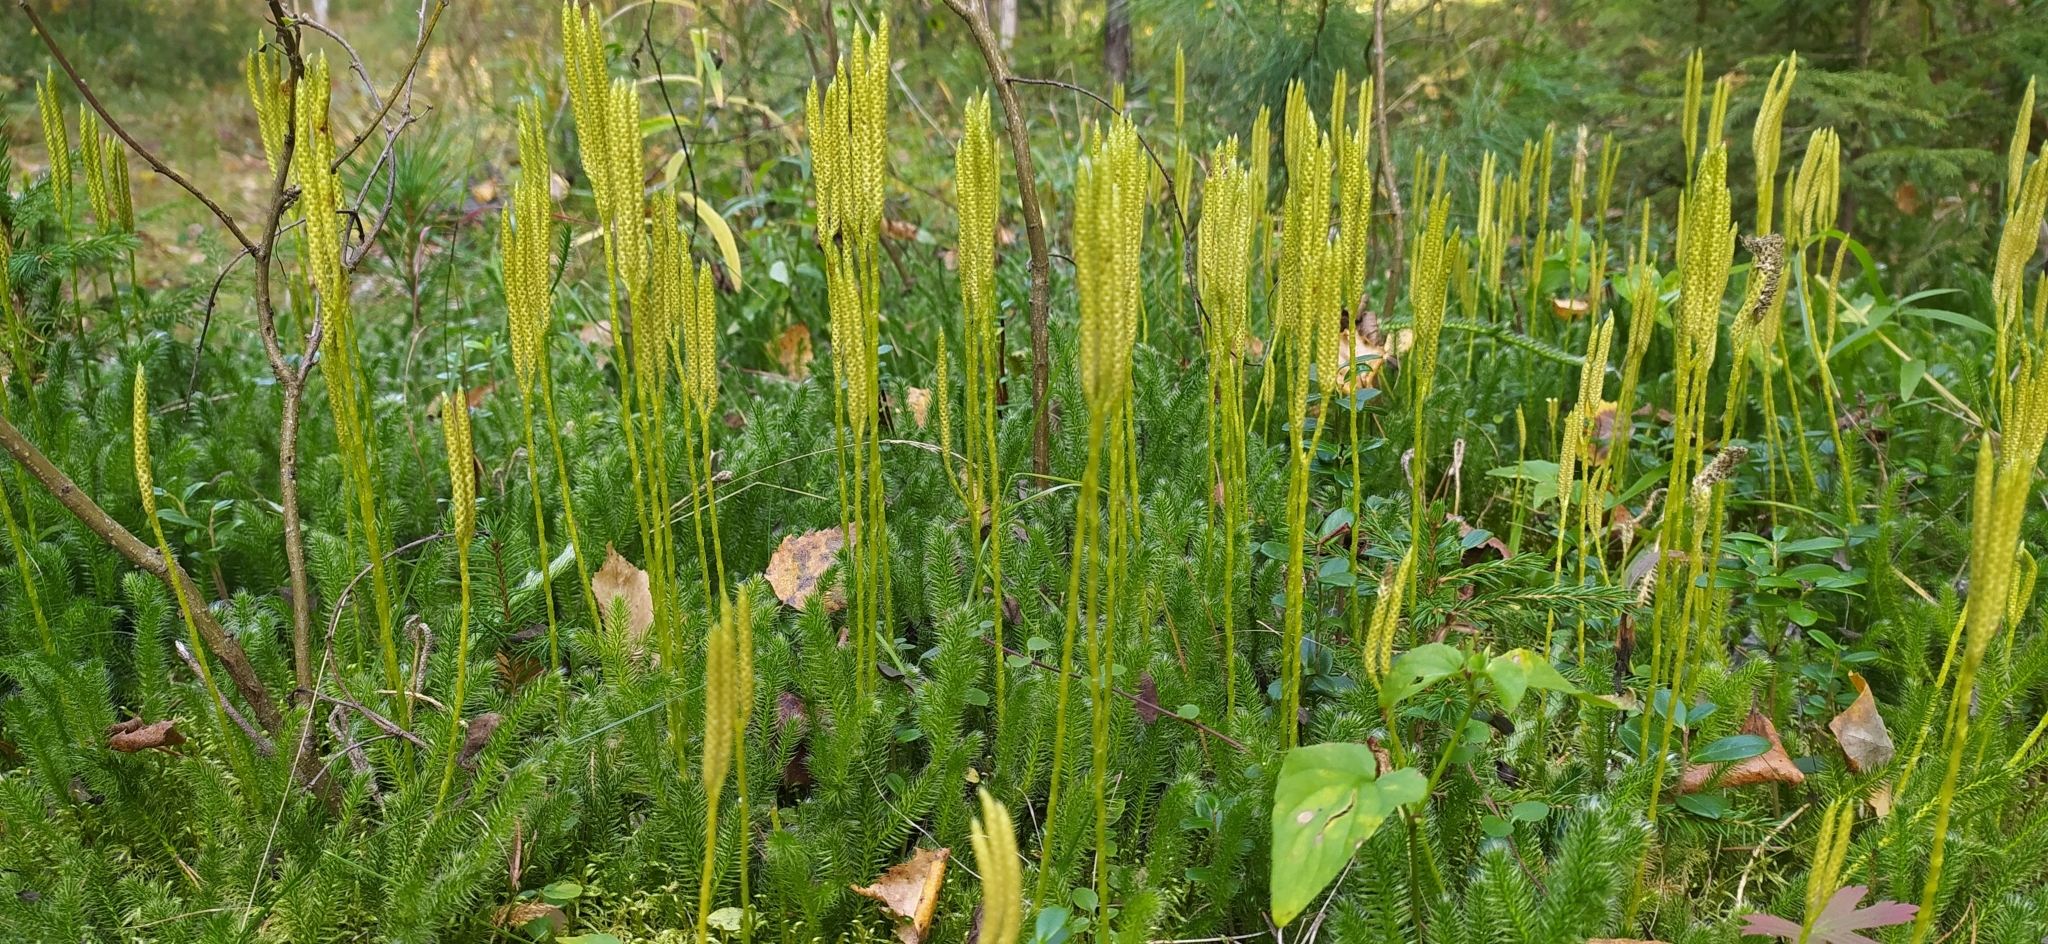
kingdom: Plantae
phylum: Tracheophyta
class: Lycopodiopsida
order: Lycopodiales
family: Lycopodiaceae
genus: Lycopodium
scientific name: Lycopodium clavatum
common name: Stag's-horn clubmoss
